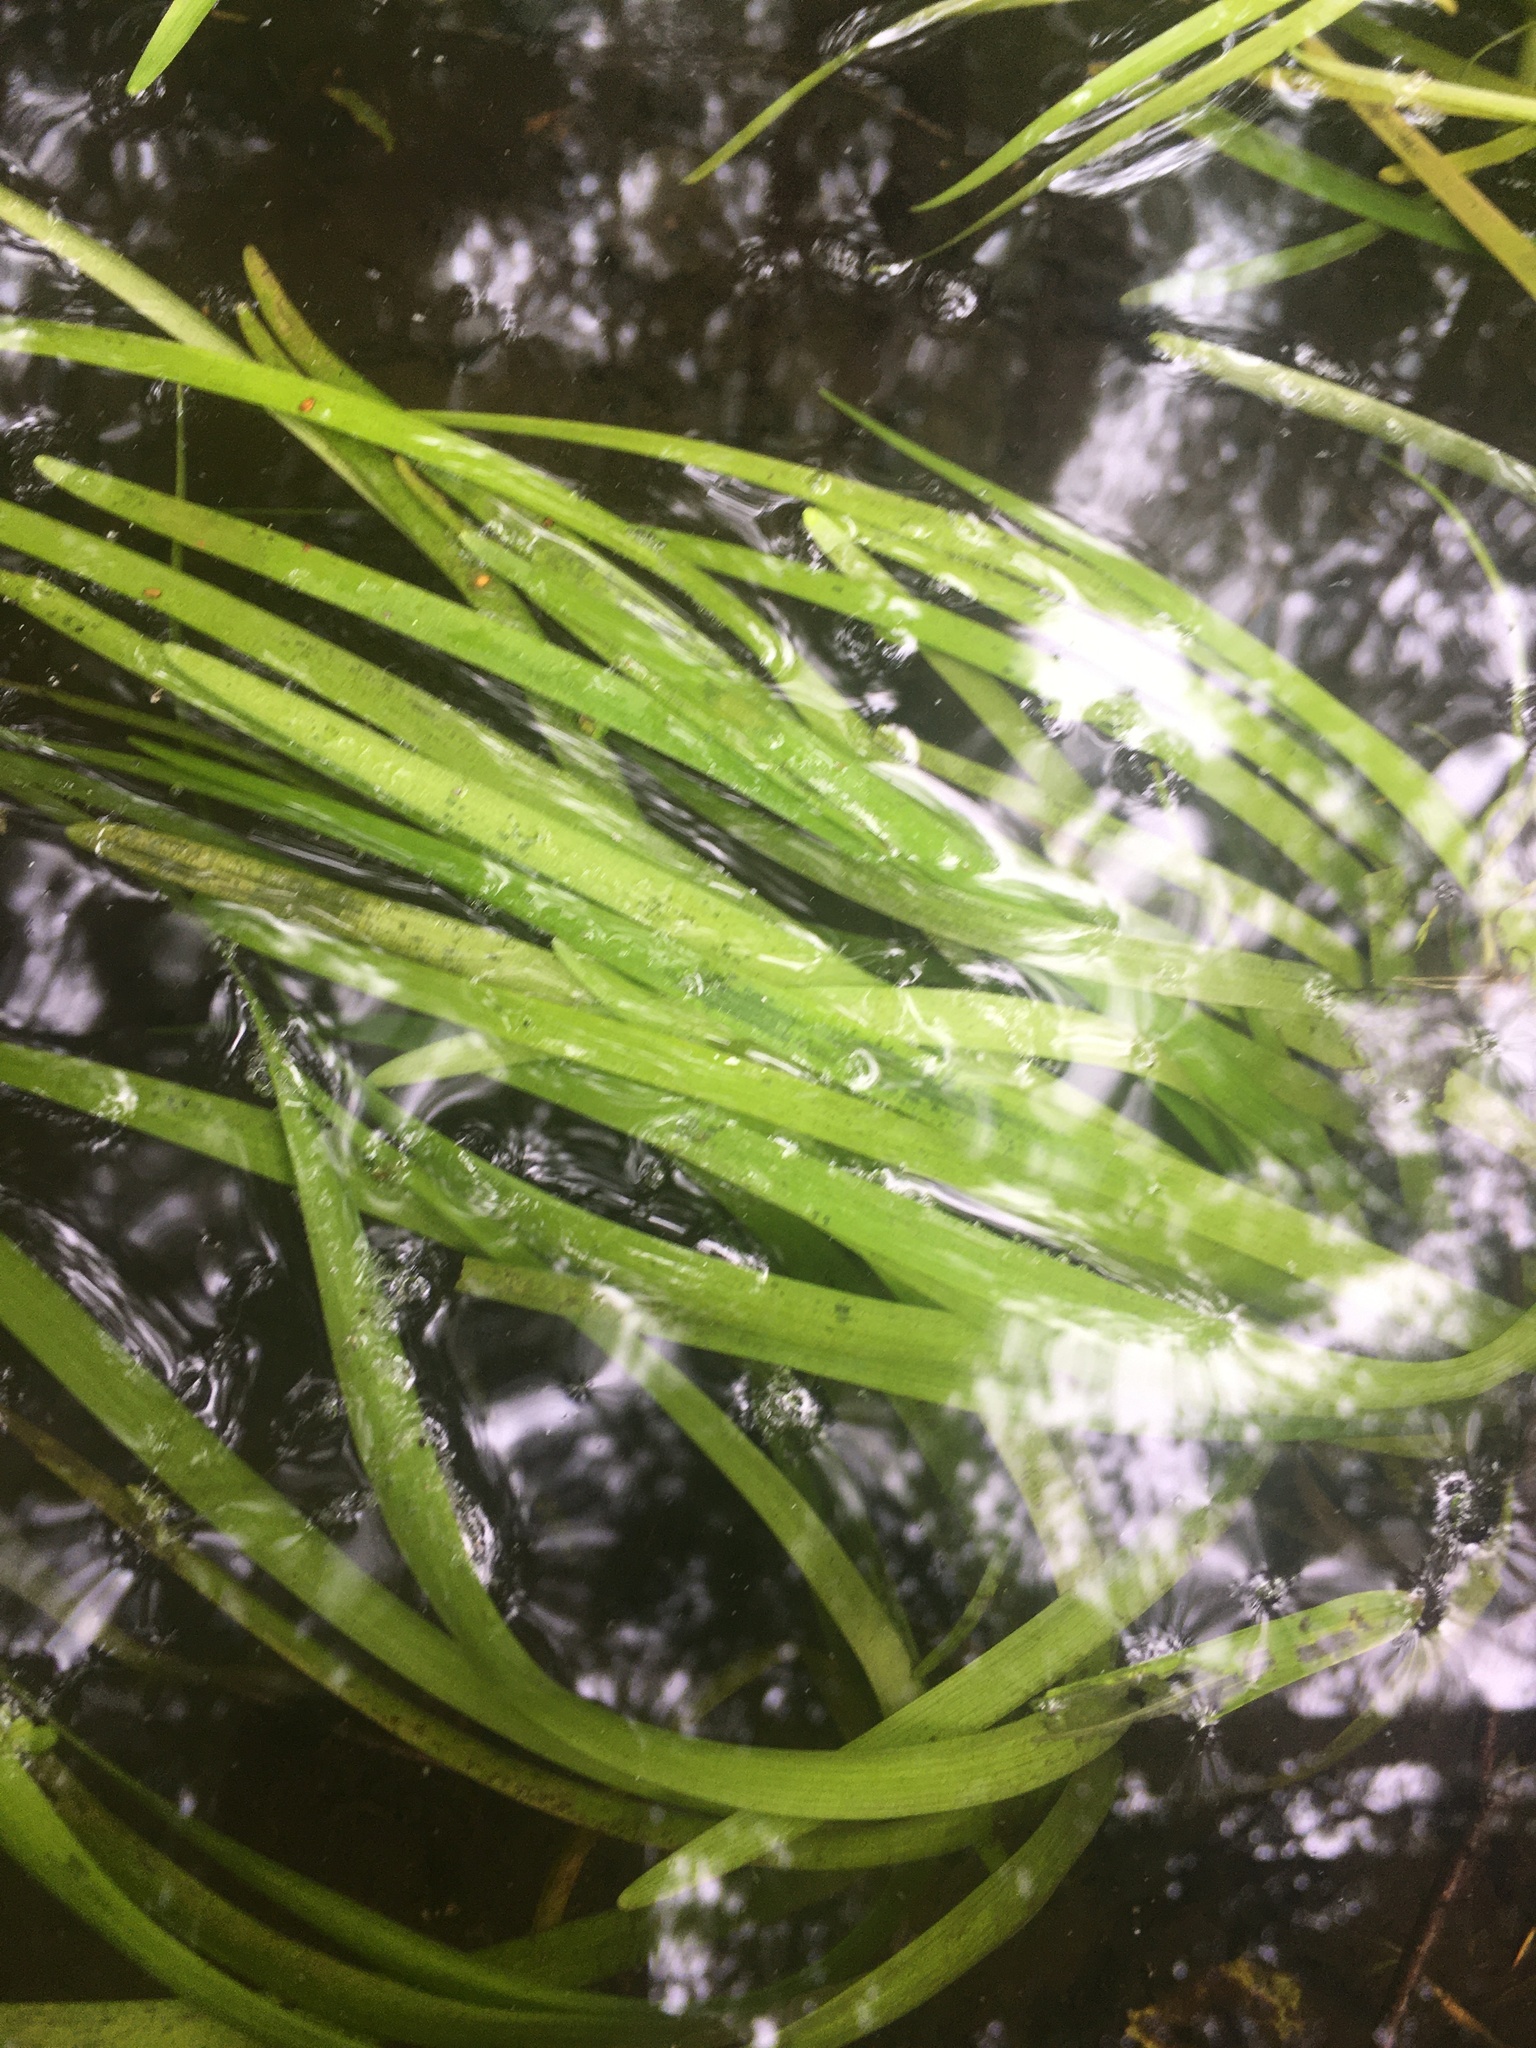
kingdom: Plantae
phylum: Tracheophyta
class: Liliopsida
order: Poales
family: Typhaceae
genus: Sparganium
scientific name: Sparganium emersum
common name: Unbranched bur-reed
